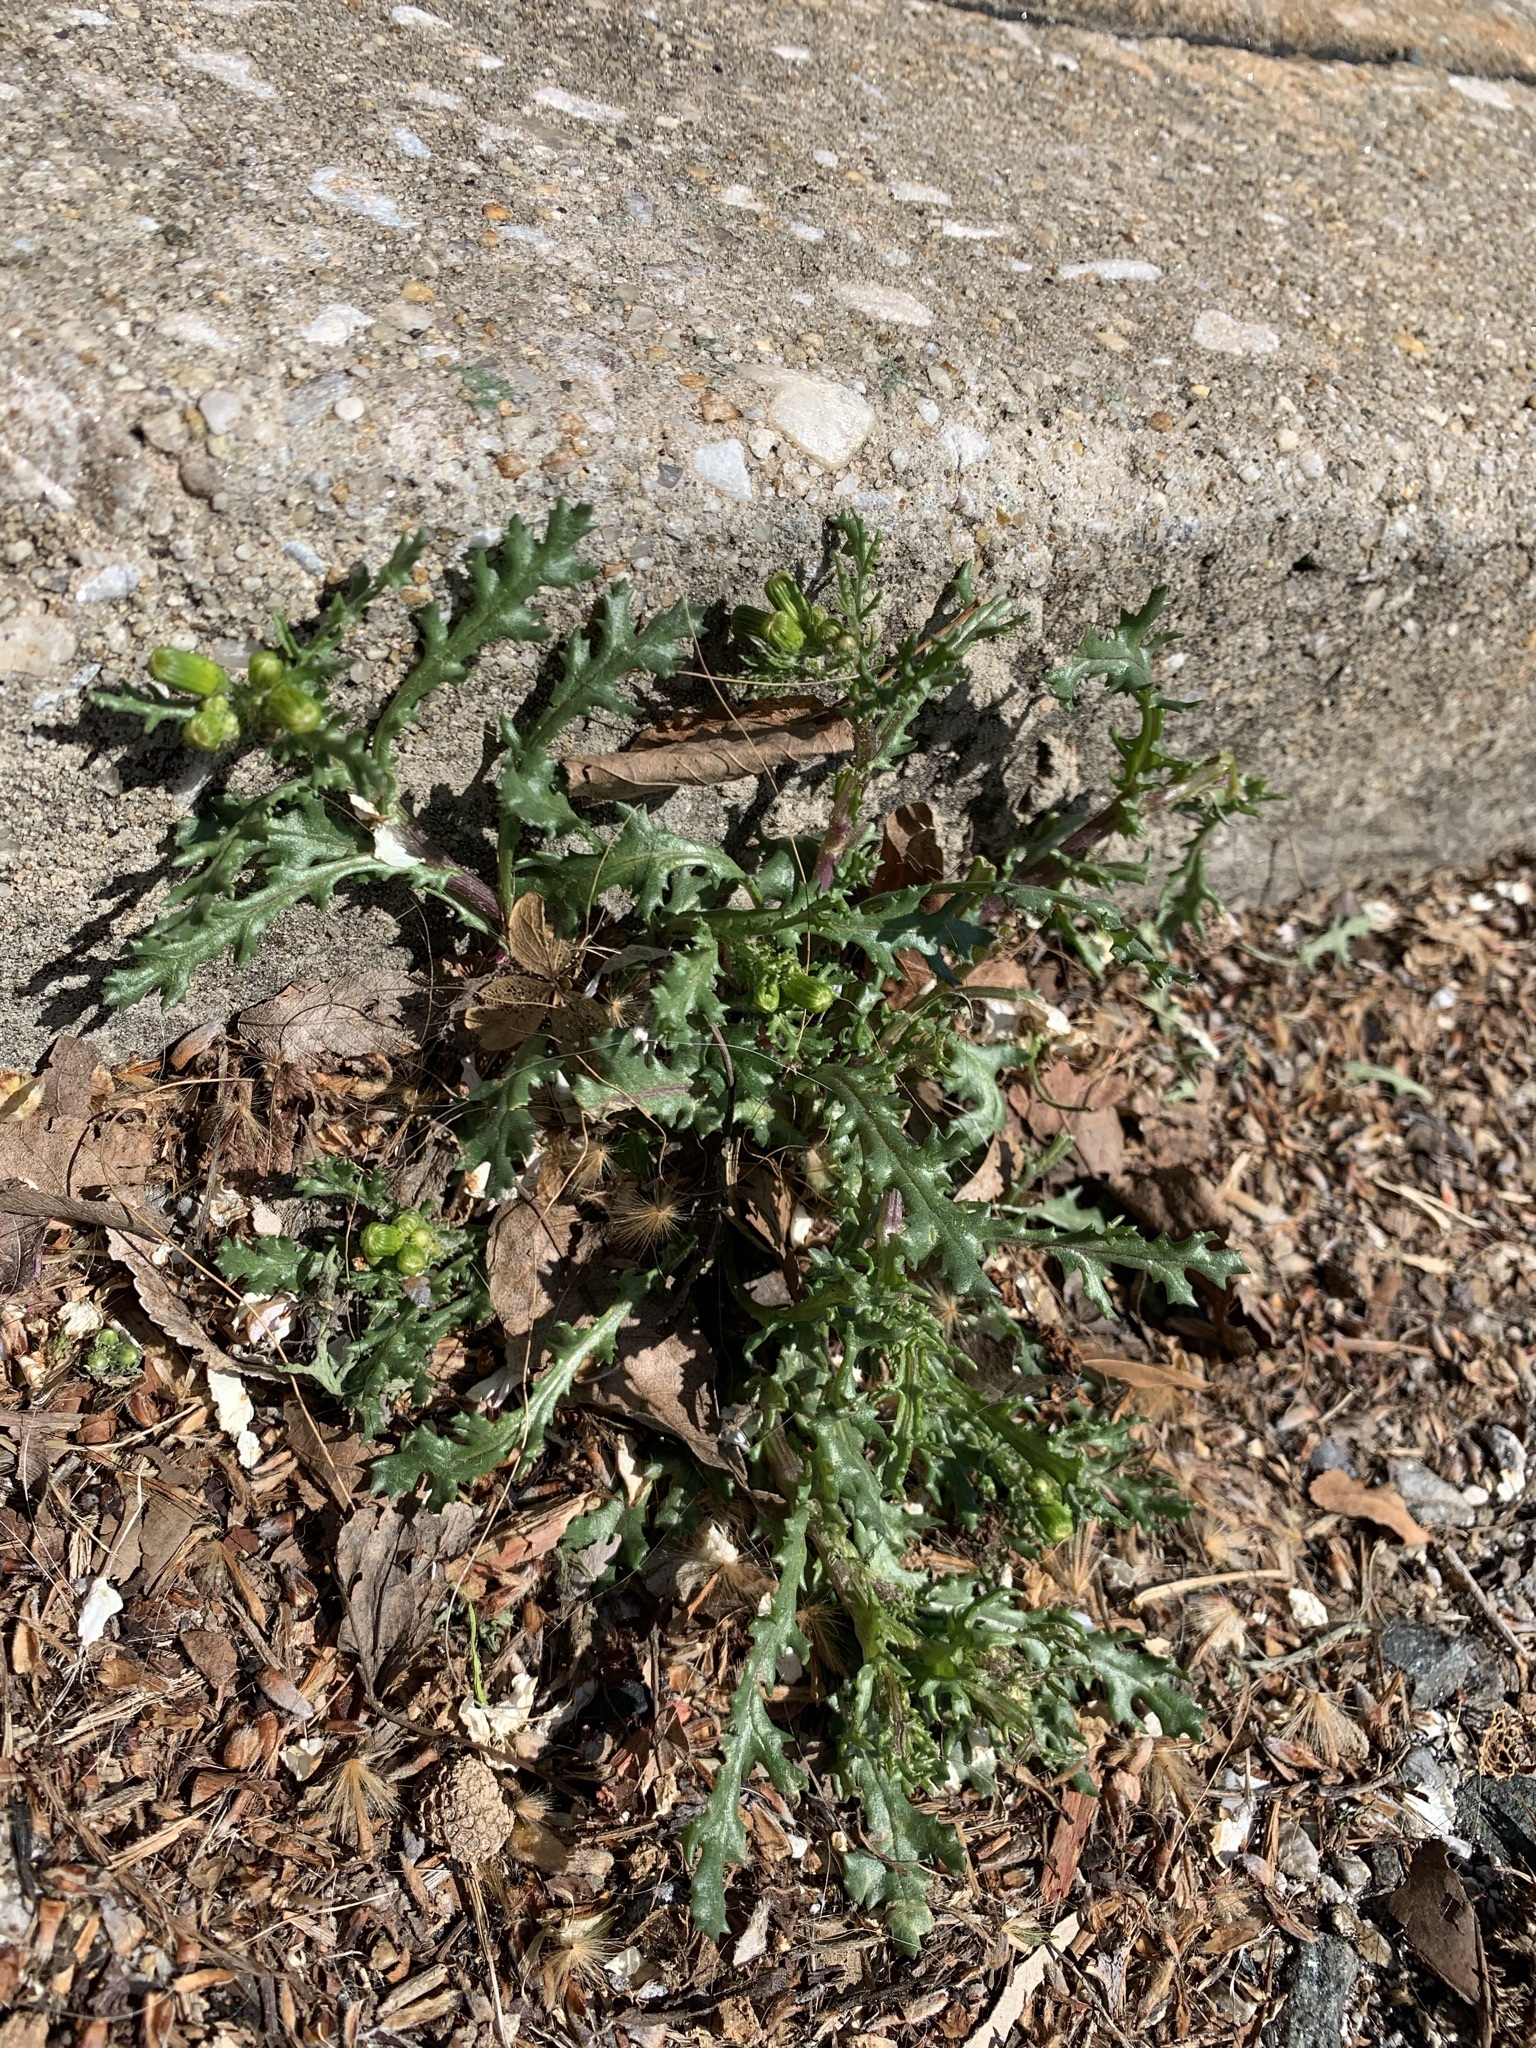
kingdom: Plantae
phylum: Tracheophyta
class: Magnoliopsida
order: Asterales
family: Asteraceae
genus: Senecio
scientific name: Senecio vulgaris
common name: Old-man-in-the-spring
